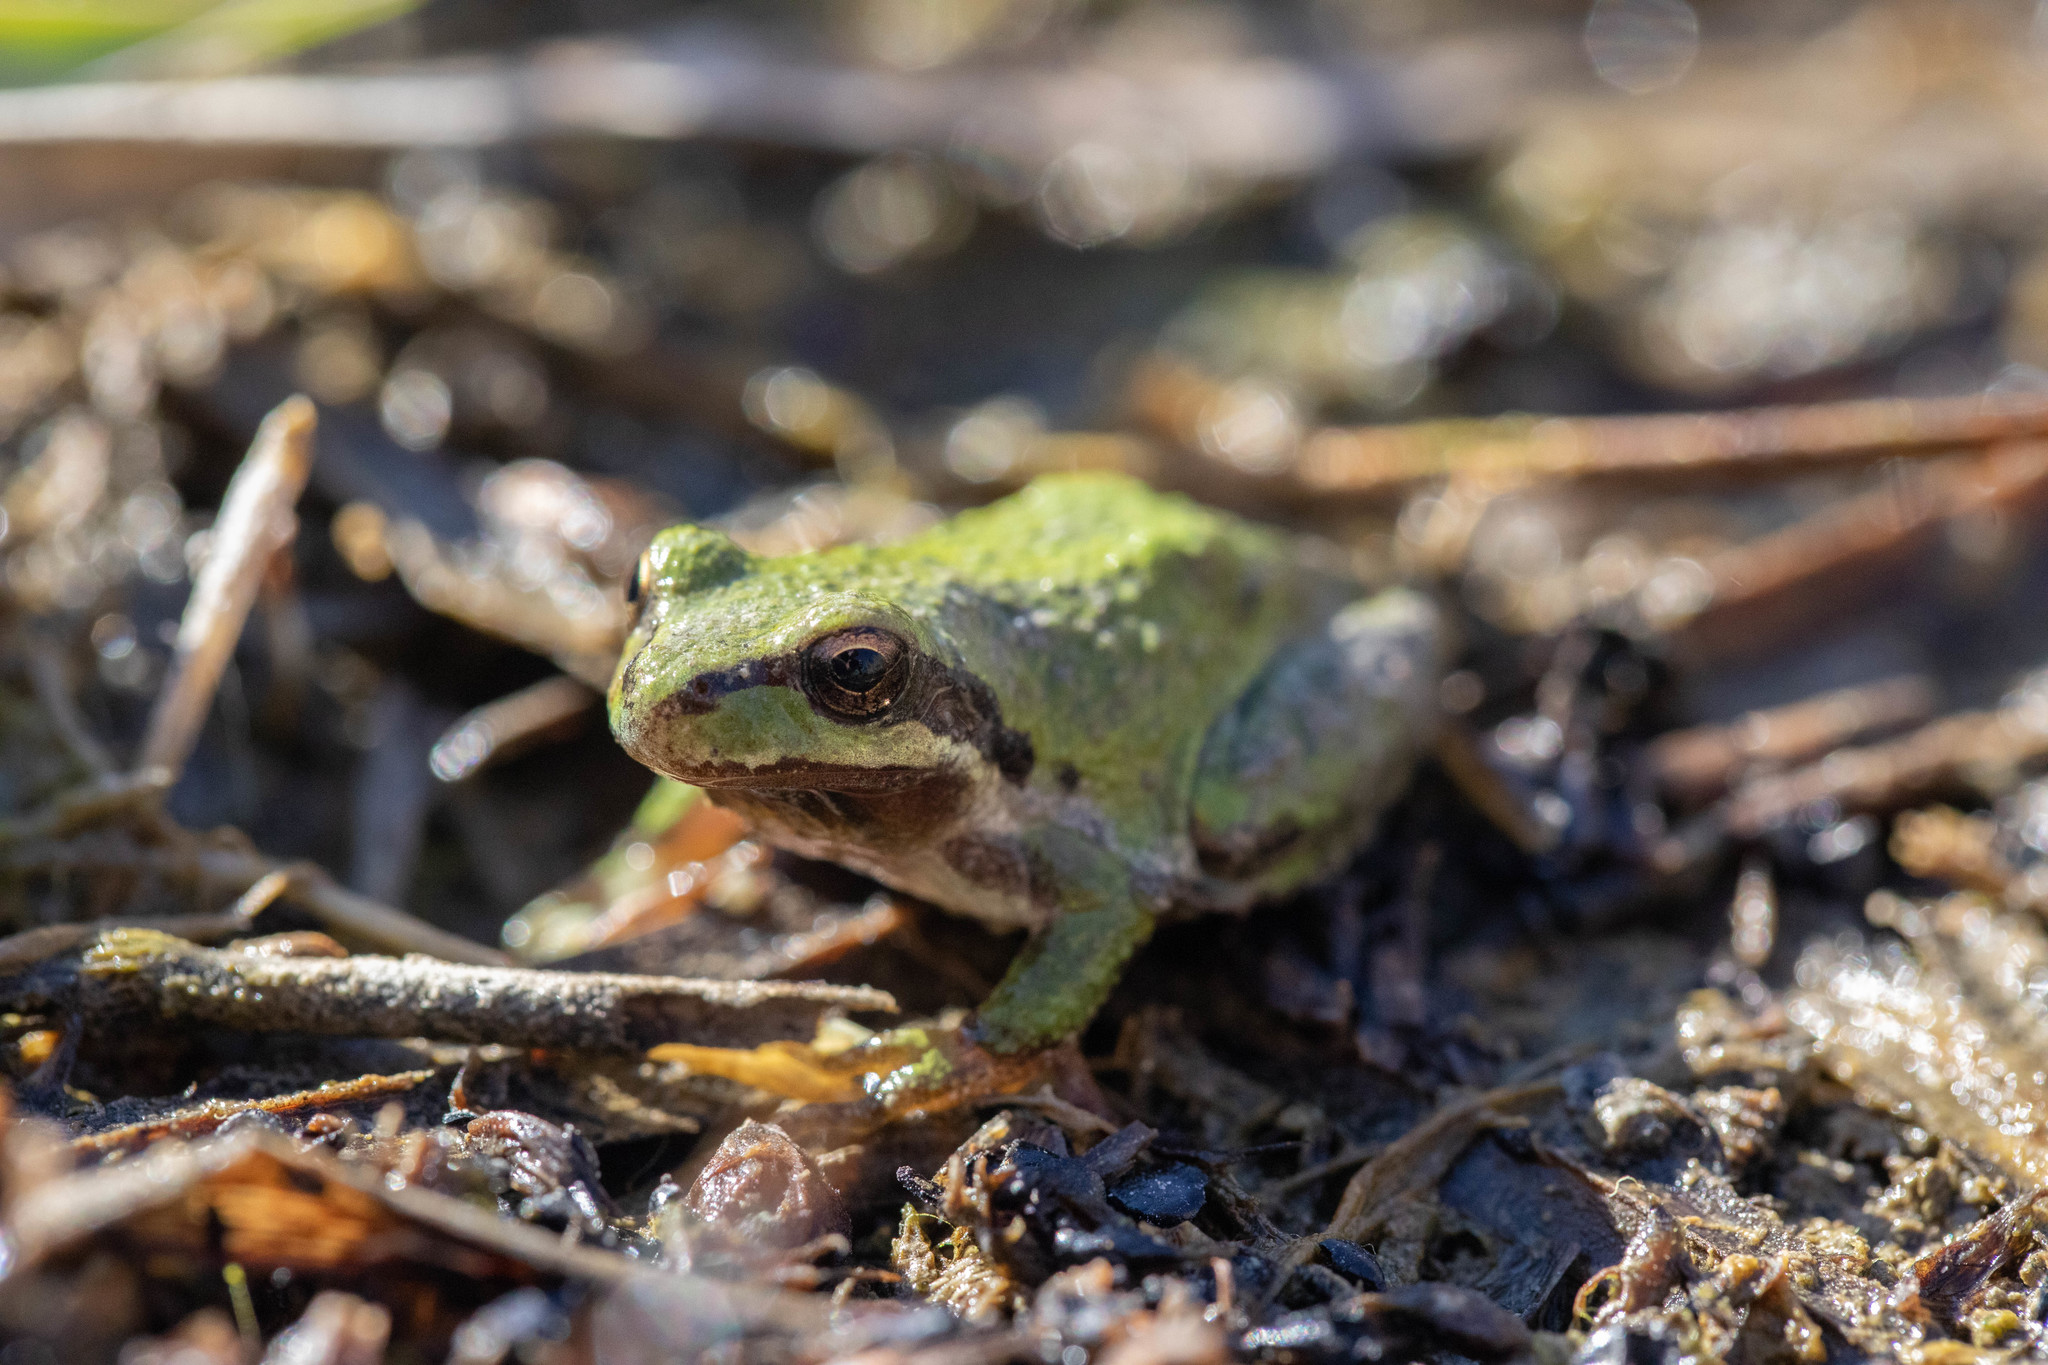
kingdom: Animalia
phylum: Chordata
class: Amphibia
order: Anura
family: Hylidae
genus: Pseudacris
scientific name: Pseudacris regilla
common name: Pacific chorus frog
